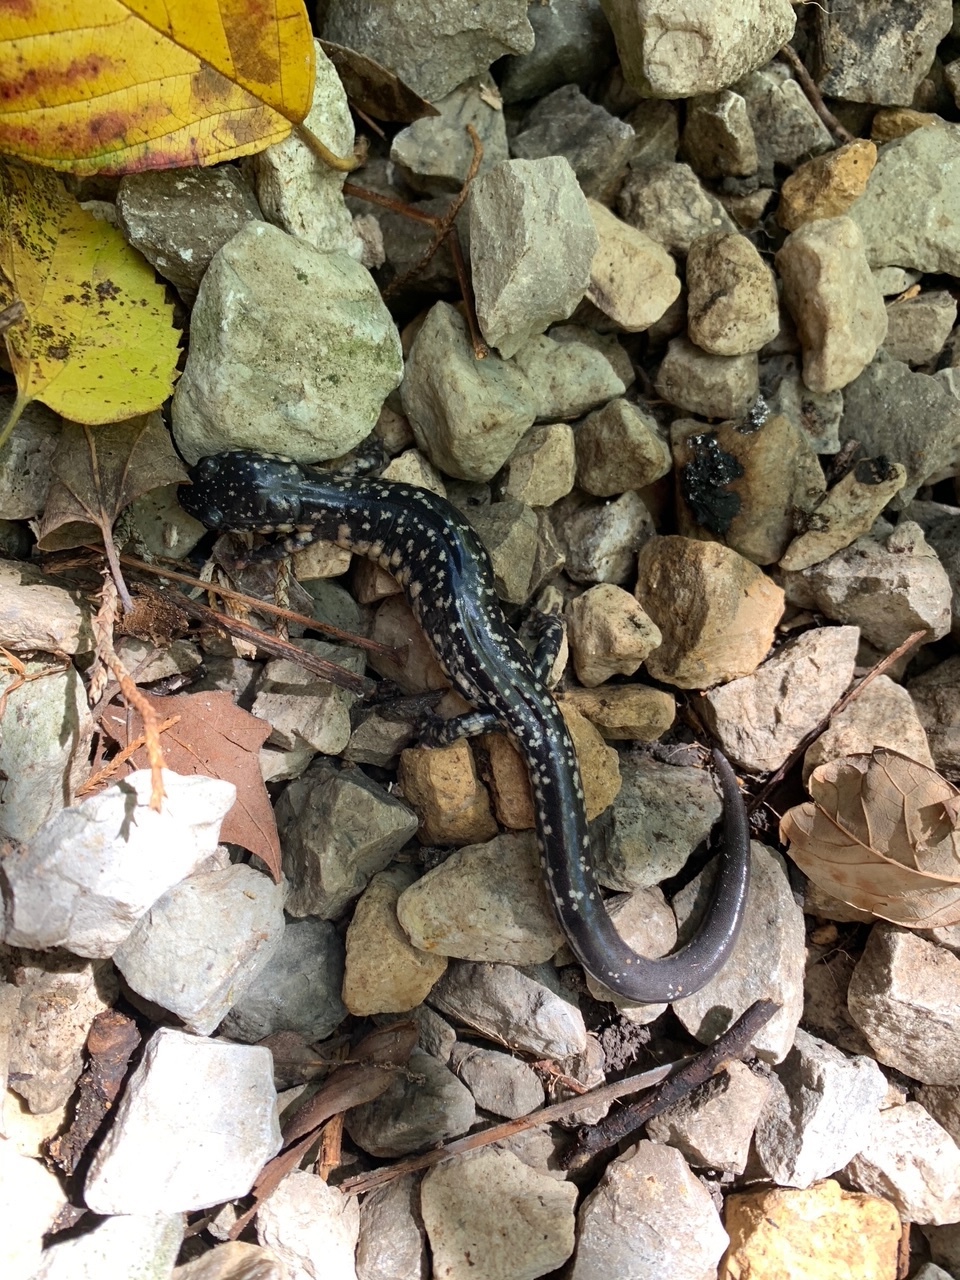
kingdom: Animalia
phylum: Chordata
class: Amphibia
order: Caudata
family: Plethodontidae
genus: Plethodon
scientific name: Plethodon albagula
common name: Western slimy salamander
